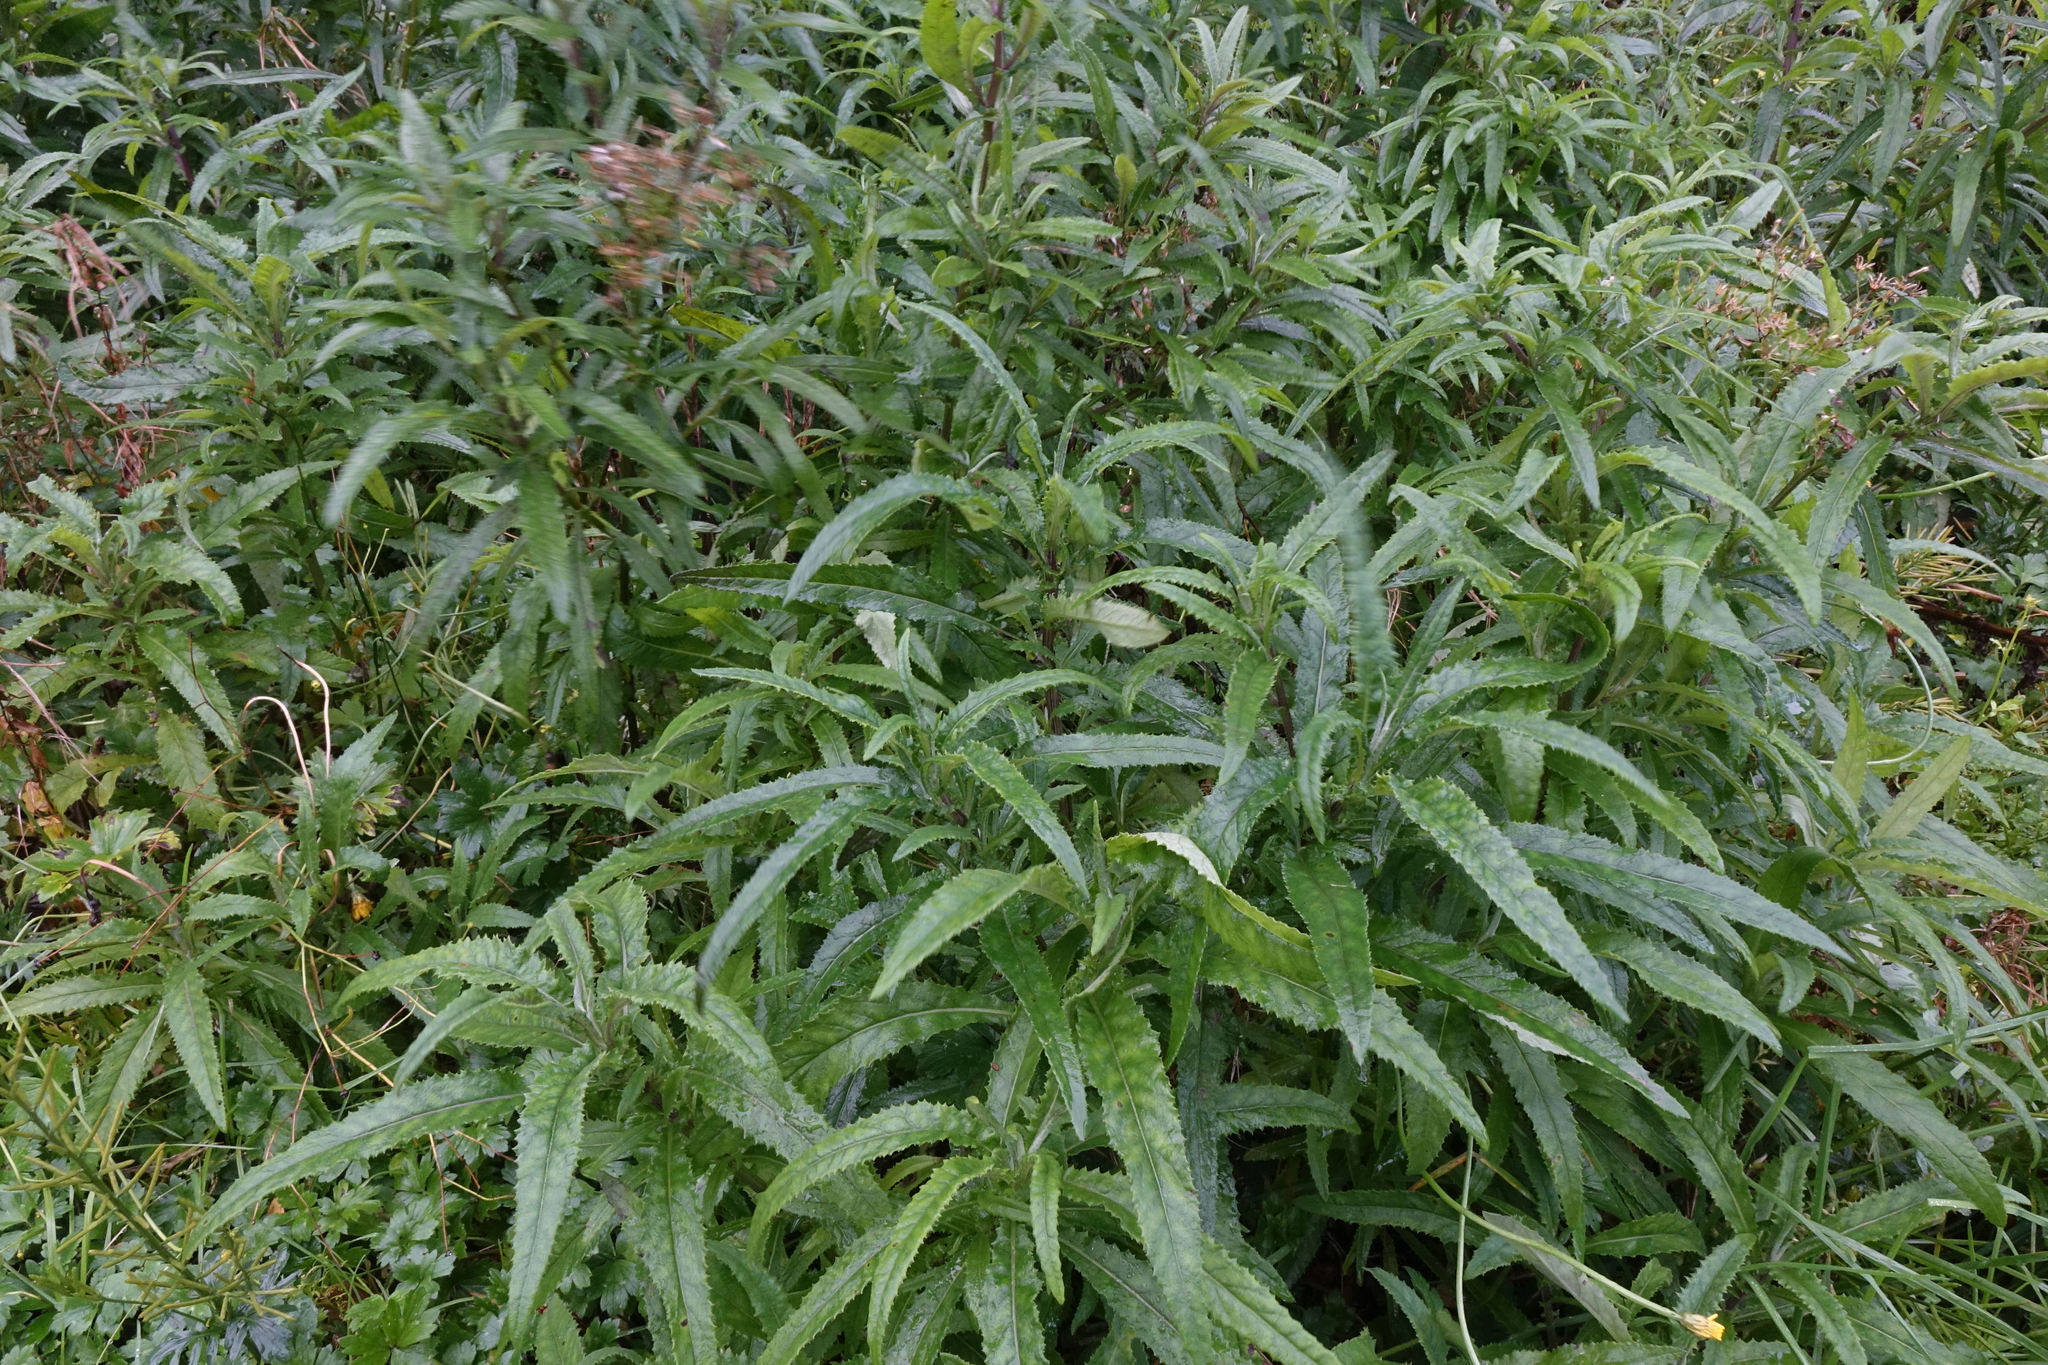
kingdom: Plantae
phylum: Tracheophyta
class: Magnoliopsida
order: Asterales
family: Asteraceae
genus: Senecio
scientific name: Senecio minimus
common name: Toothed fireweed
